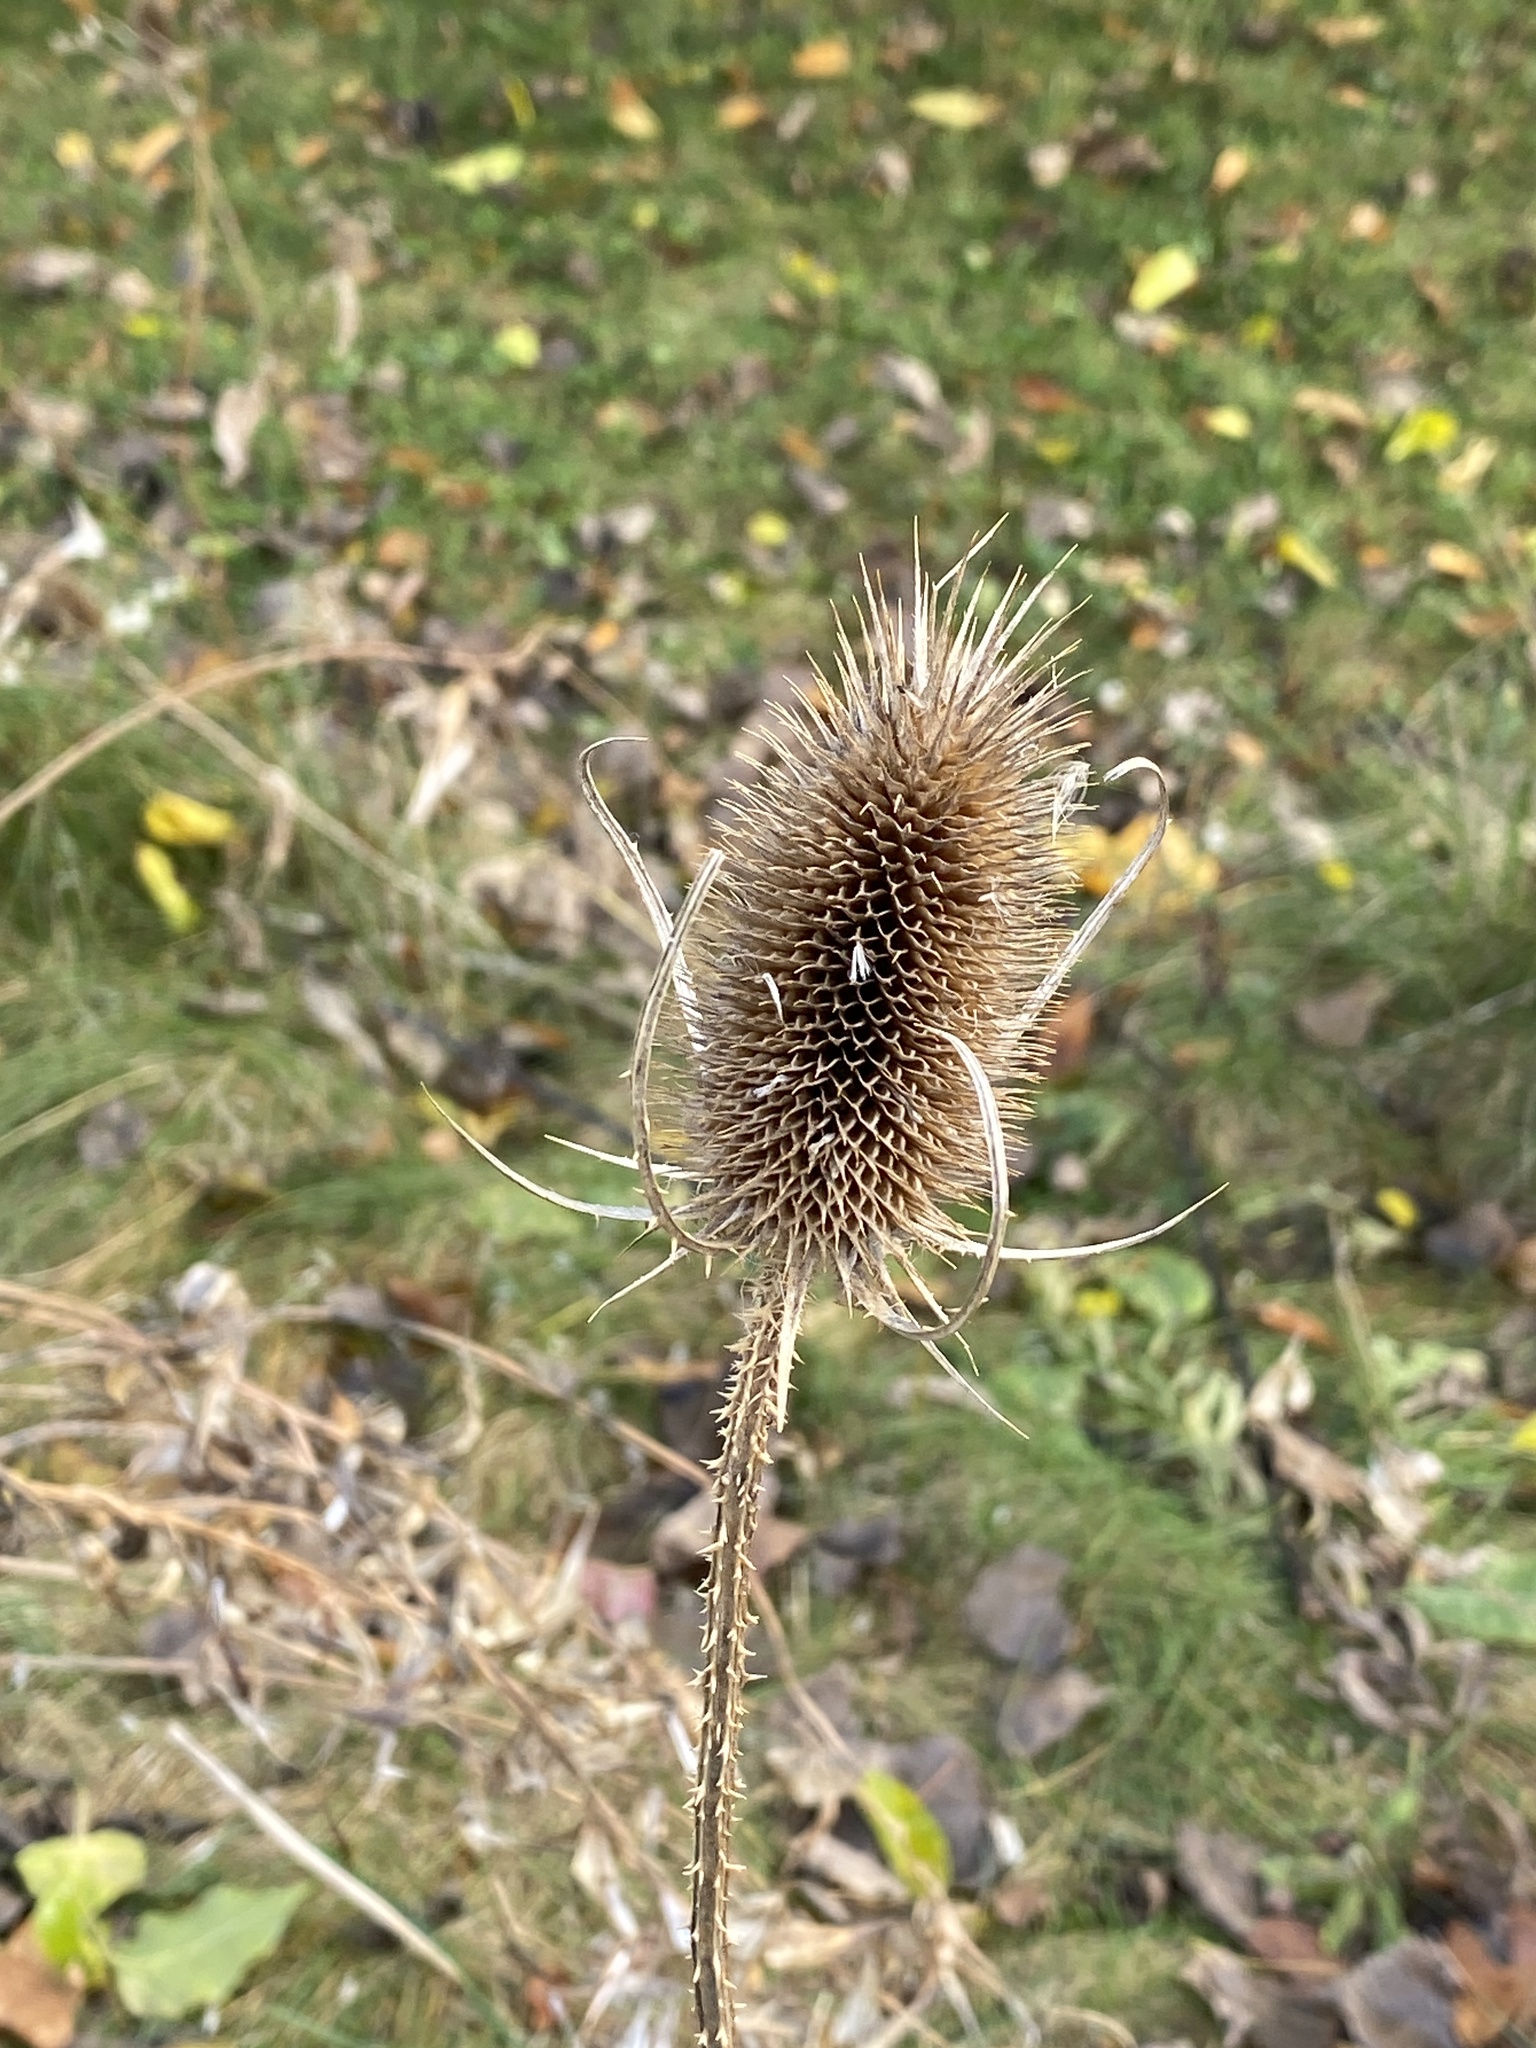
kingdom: Plantae
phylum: Tracheophyta
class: Magnoliopsida
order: Dipsacales
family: Caprifoliaceae
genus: Dipsacus
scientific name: Dipsacus fullonum
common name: Teasel
